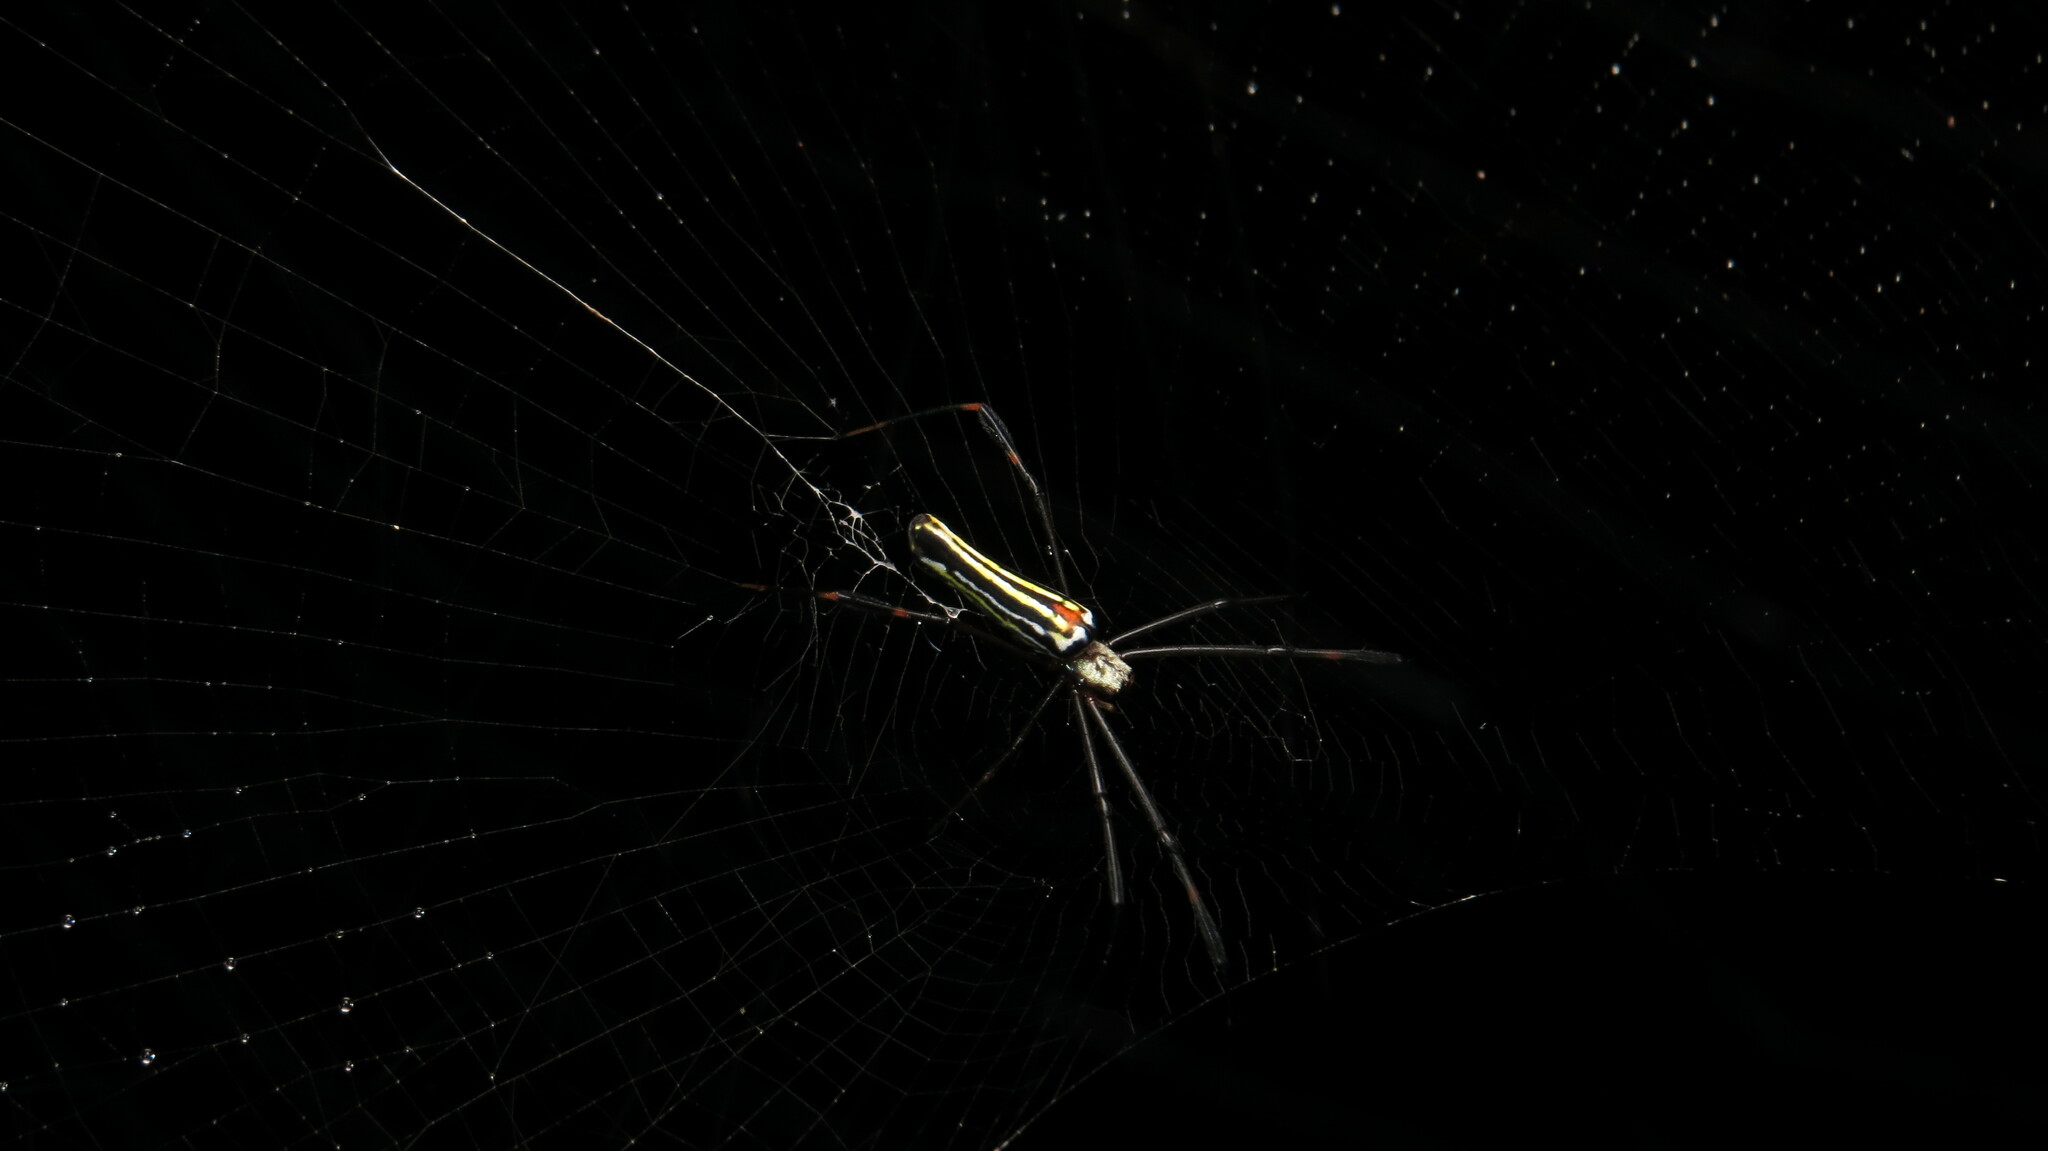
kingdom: Animalia
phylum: Arthropoda
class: Arachnida
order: Araneae
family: Araneidae
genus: Nephila
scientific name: Nephila pilipes
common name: Giant golden orb weaver
